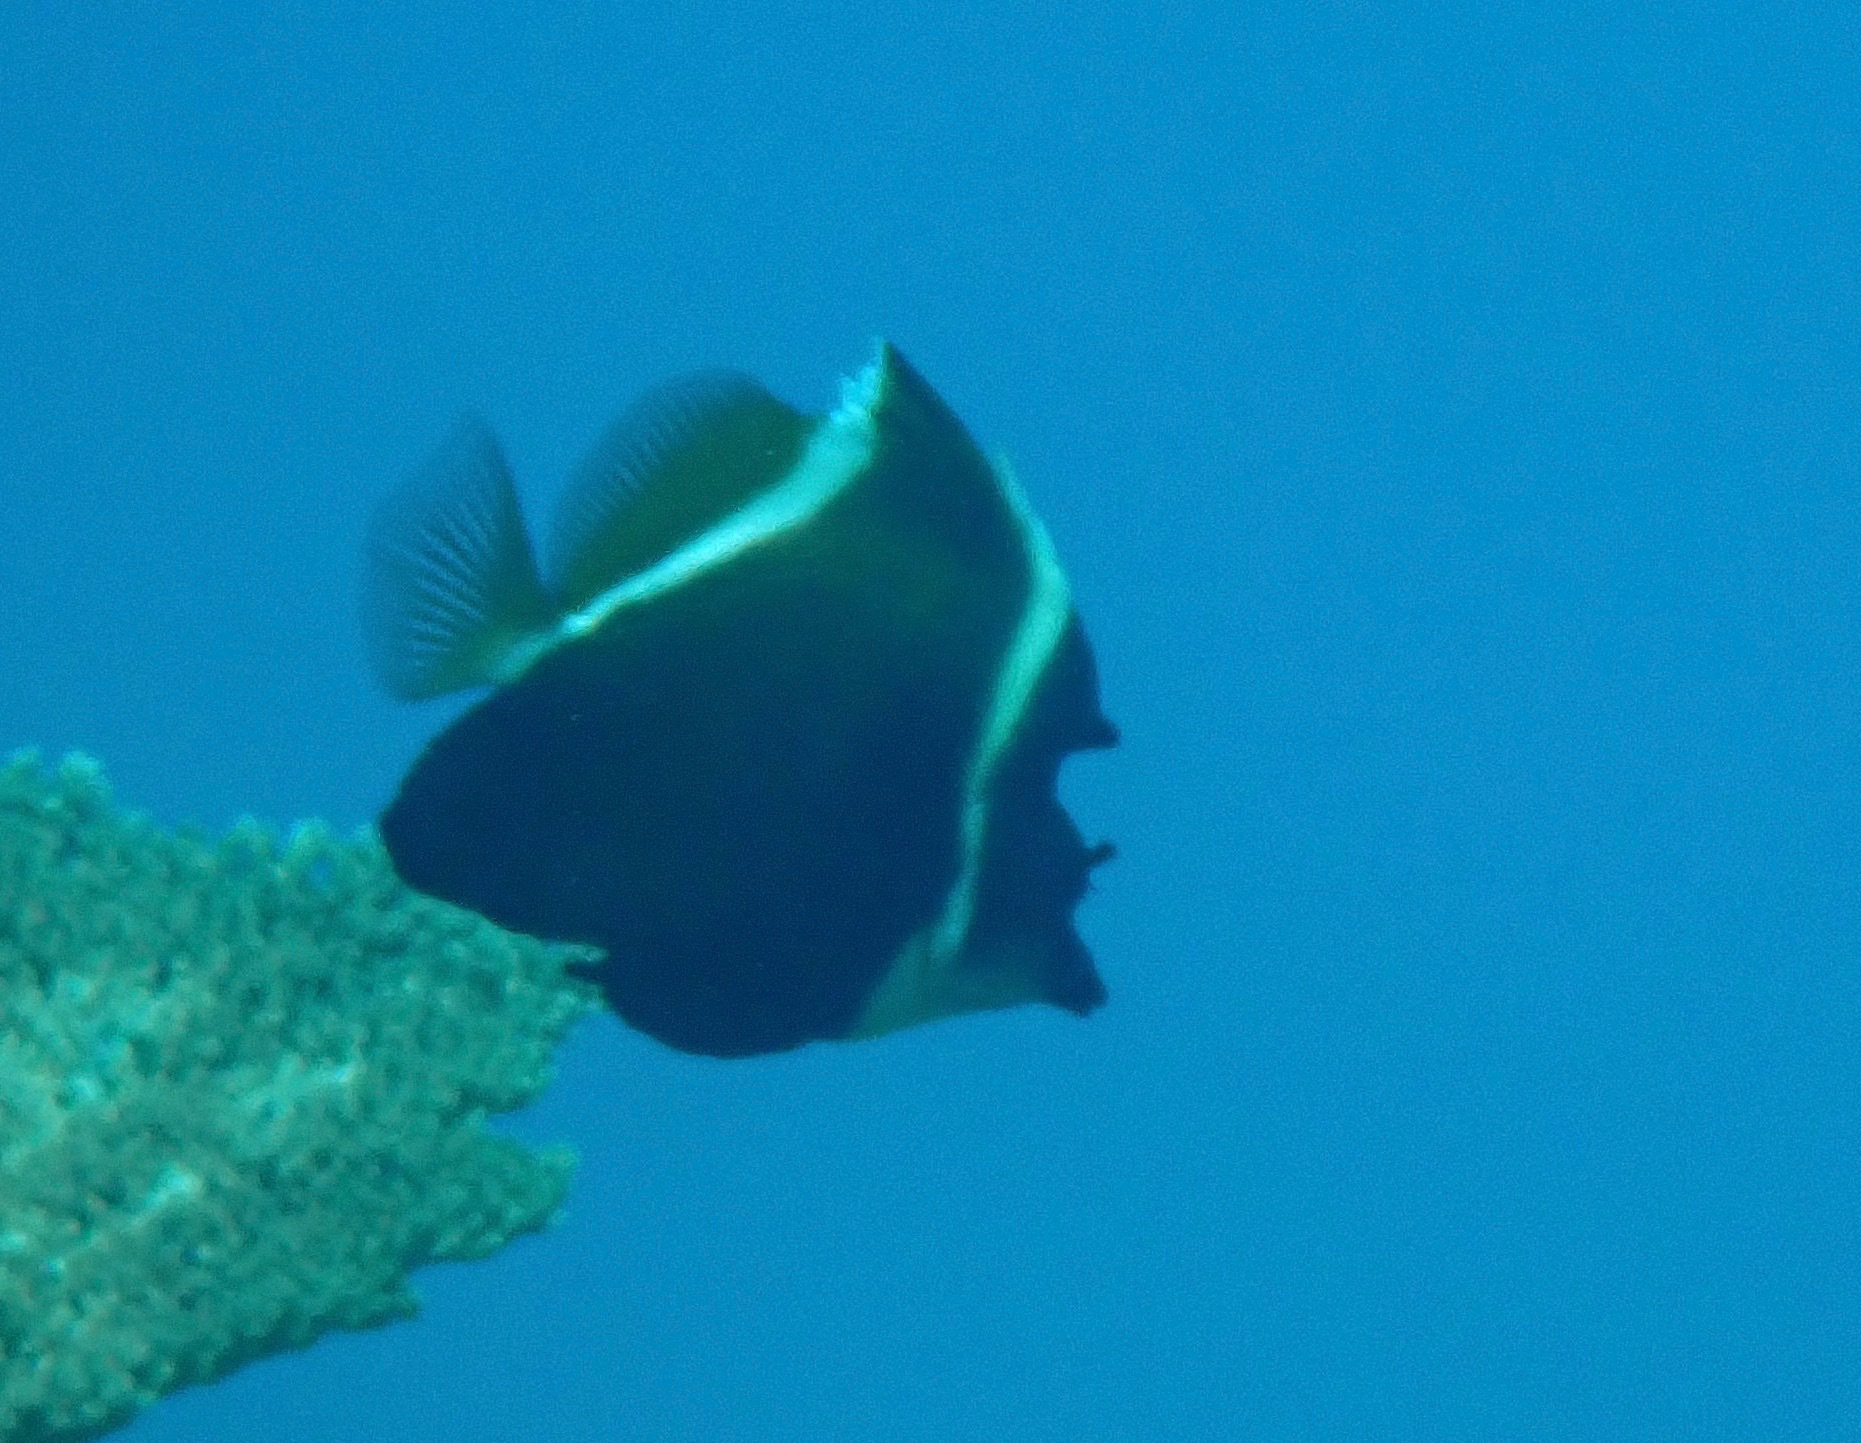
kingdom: Animalia
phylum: Chordata
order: Perciformes
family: Chaetodontidae
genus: Heniochus
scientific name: Heniochus varius
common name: Horned bannerfish
